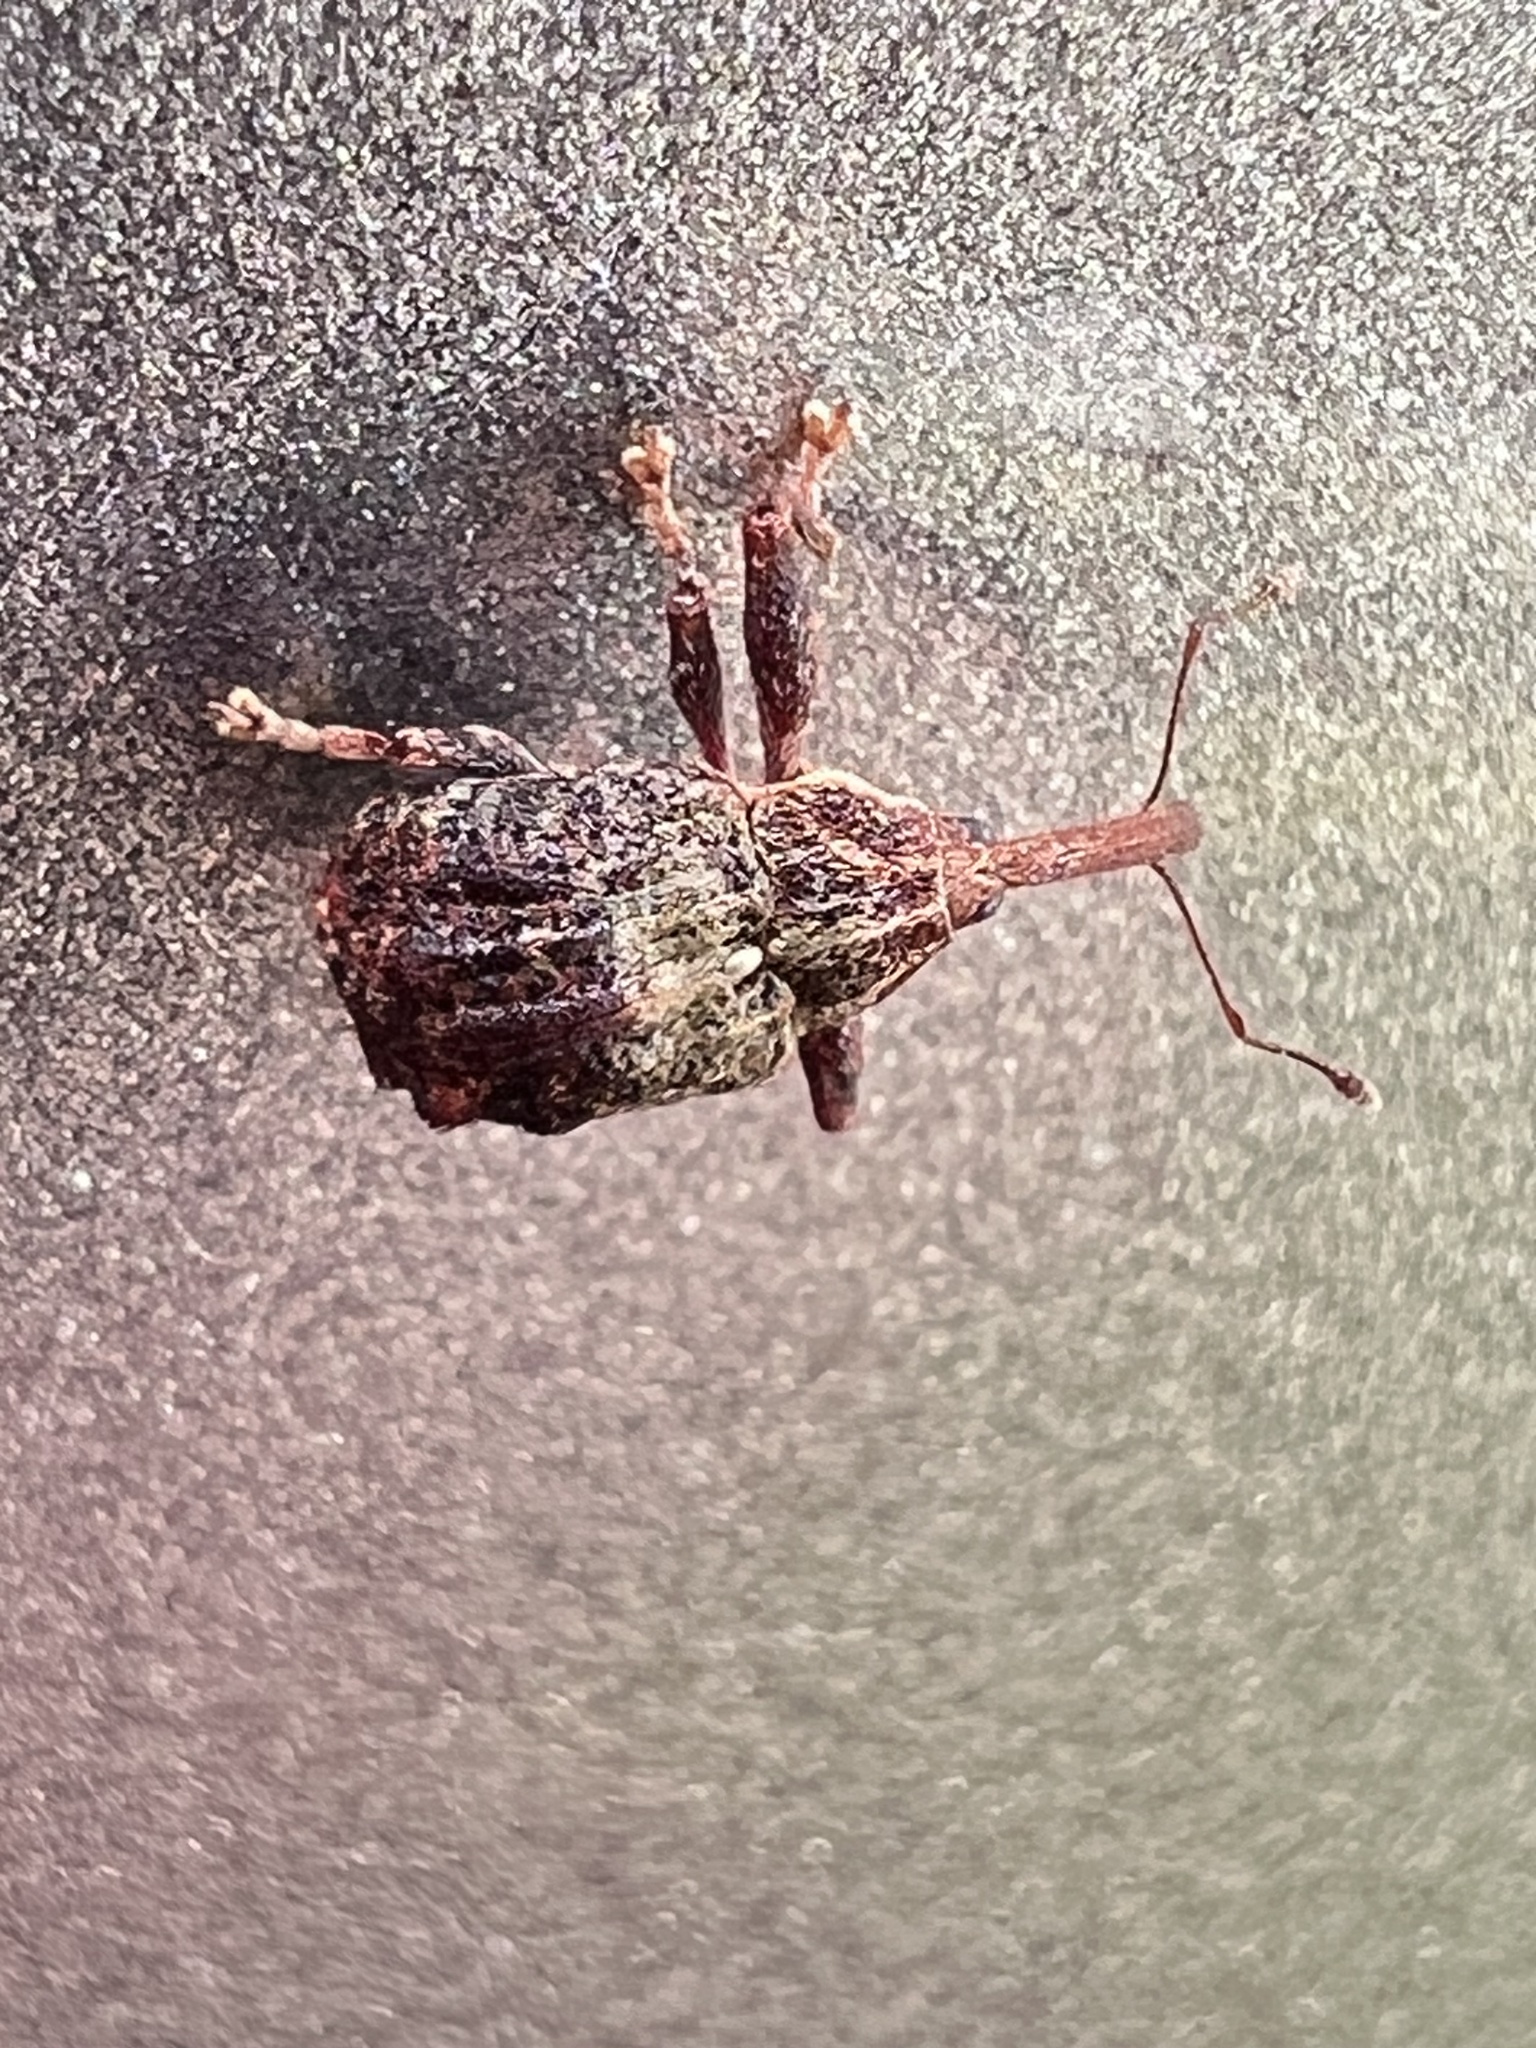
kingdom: Animalia
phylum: Arthropoda
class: Insecta
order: Coleoptera
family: Curculionidae
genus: Anthonomus
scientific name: Anthonomus quadrigibbus
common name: Apple curculio
